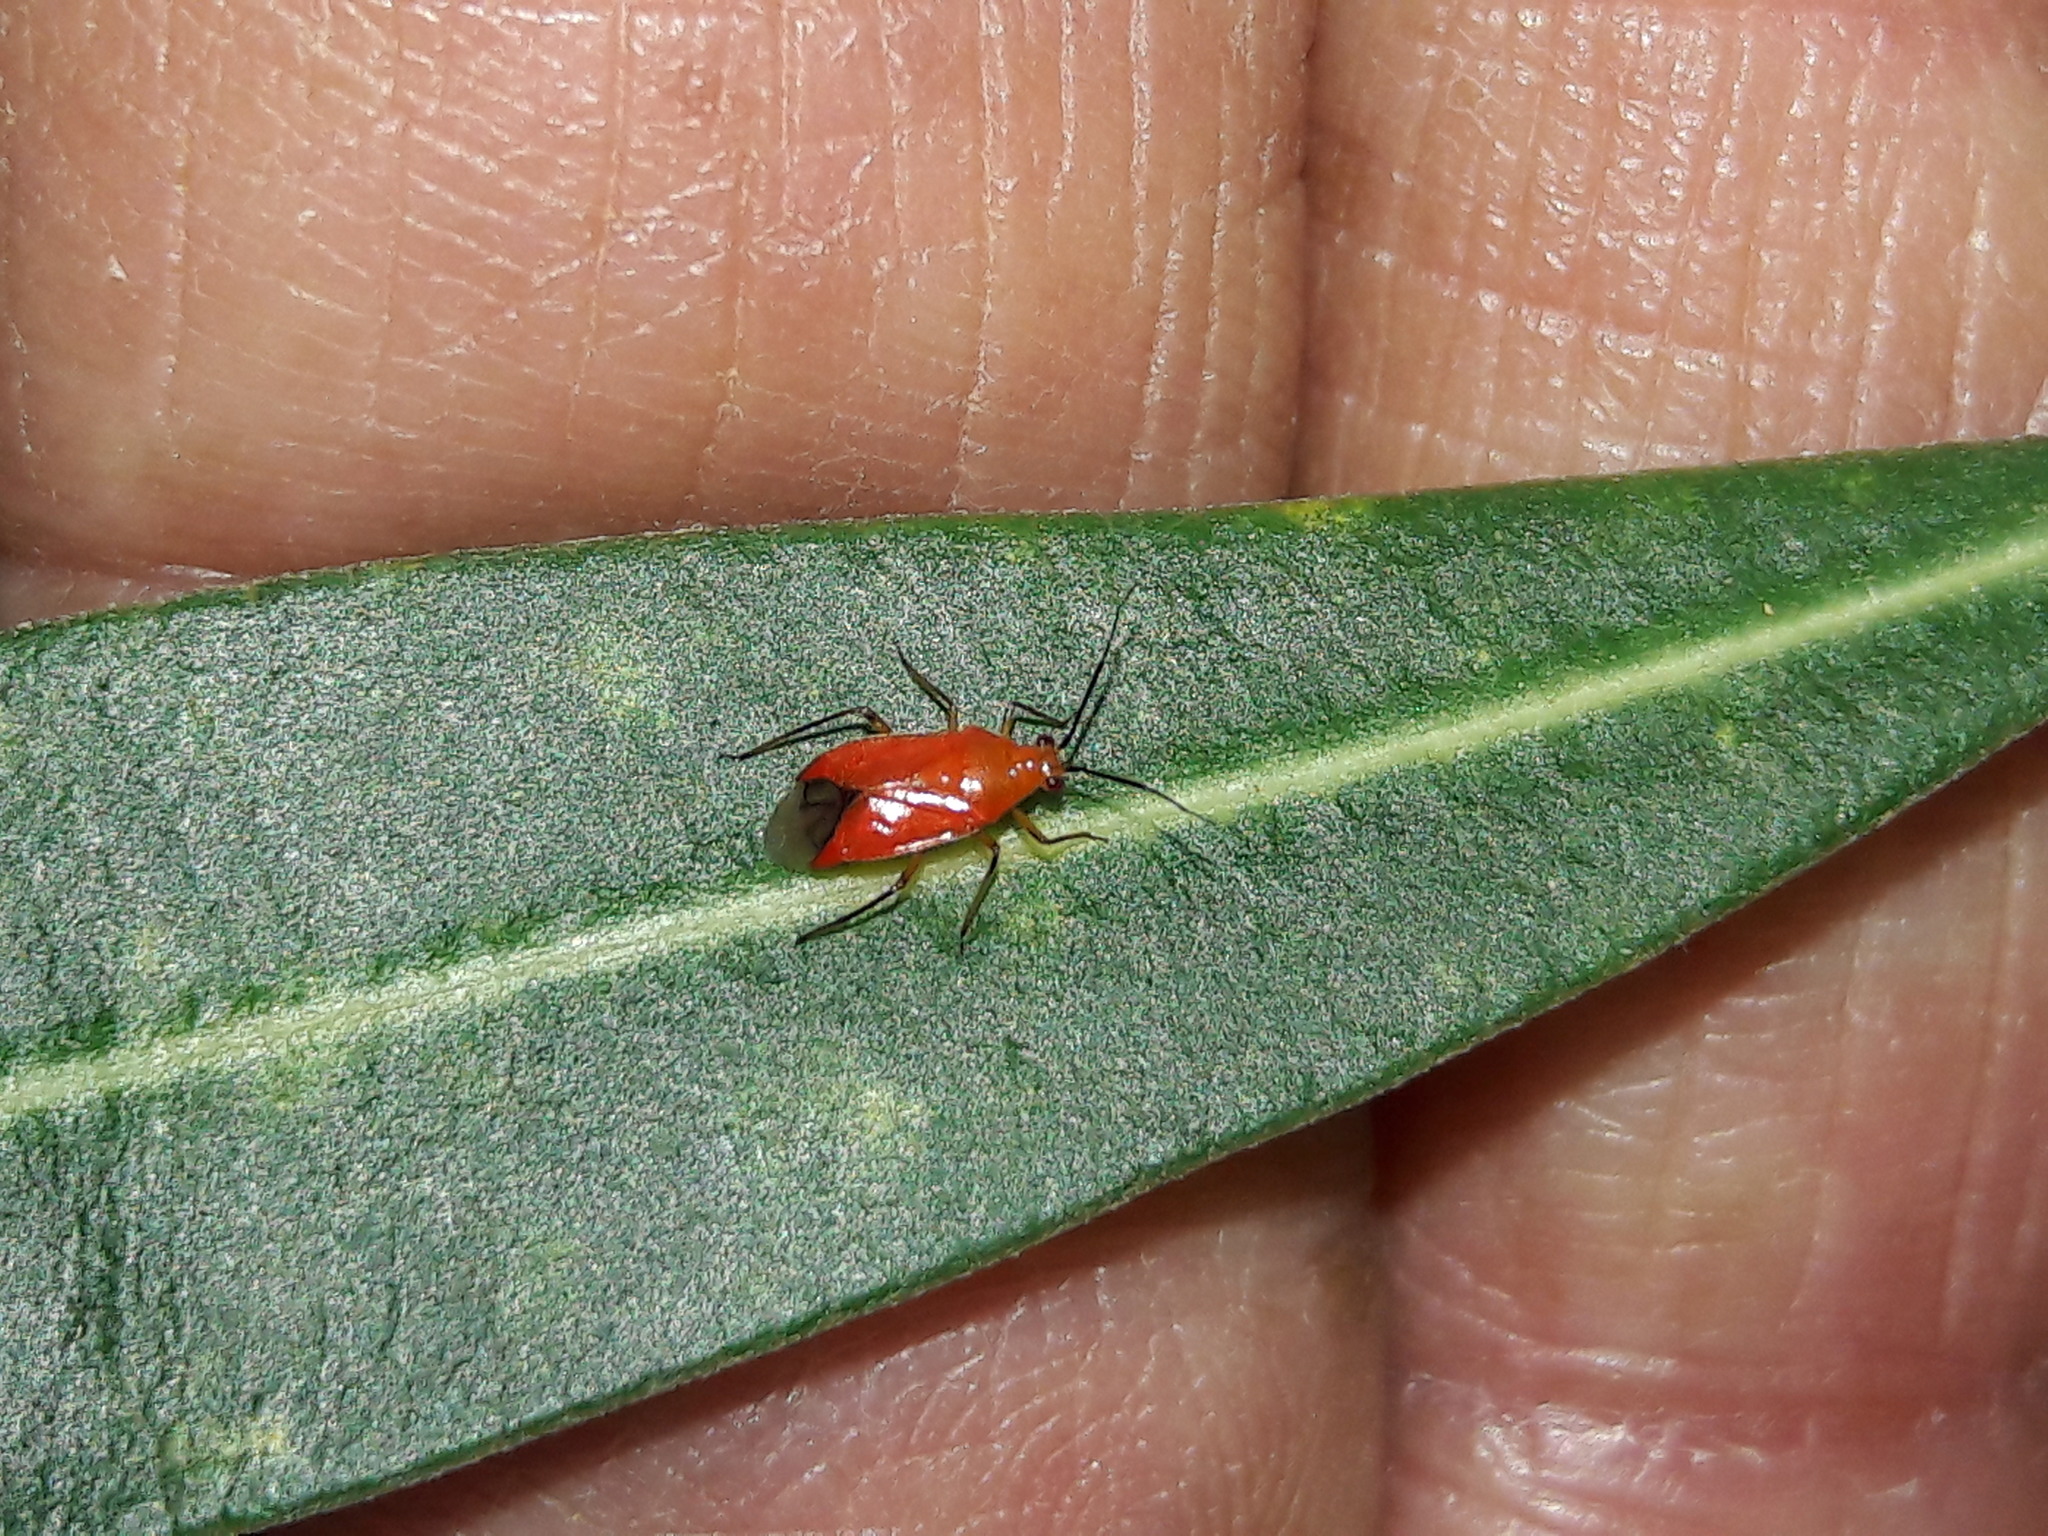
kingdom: Animalia
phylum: Arthropoda
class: Insecta
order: Hemiptera
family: Miridae
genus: Ambracius
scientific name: Ambracius dufouri
